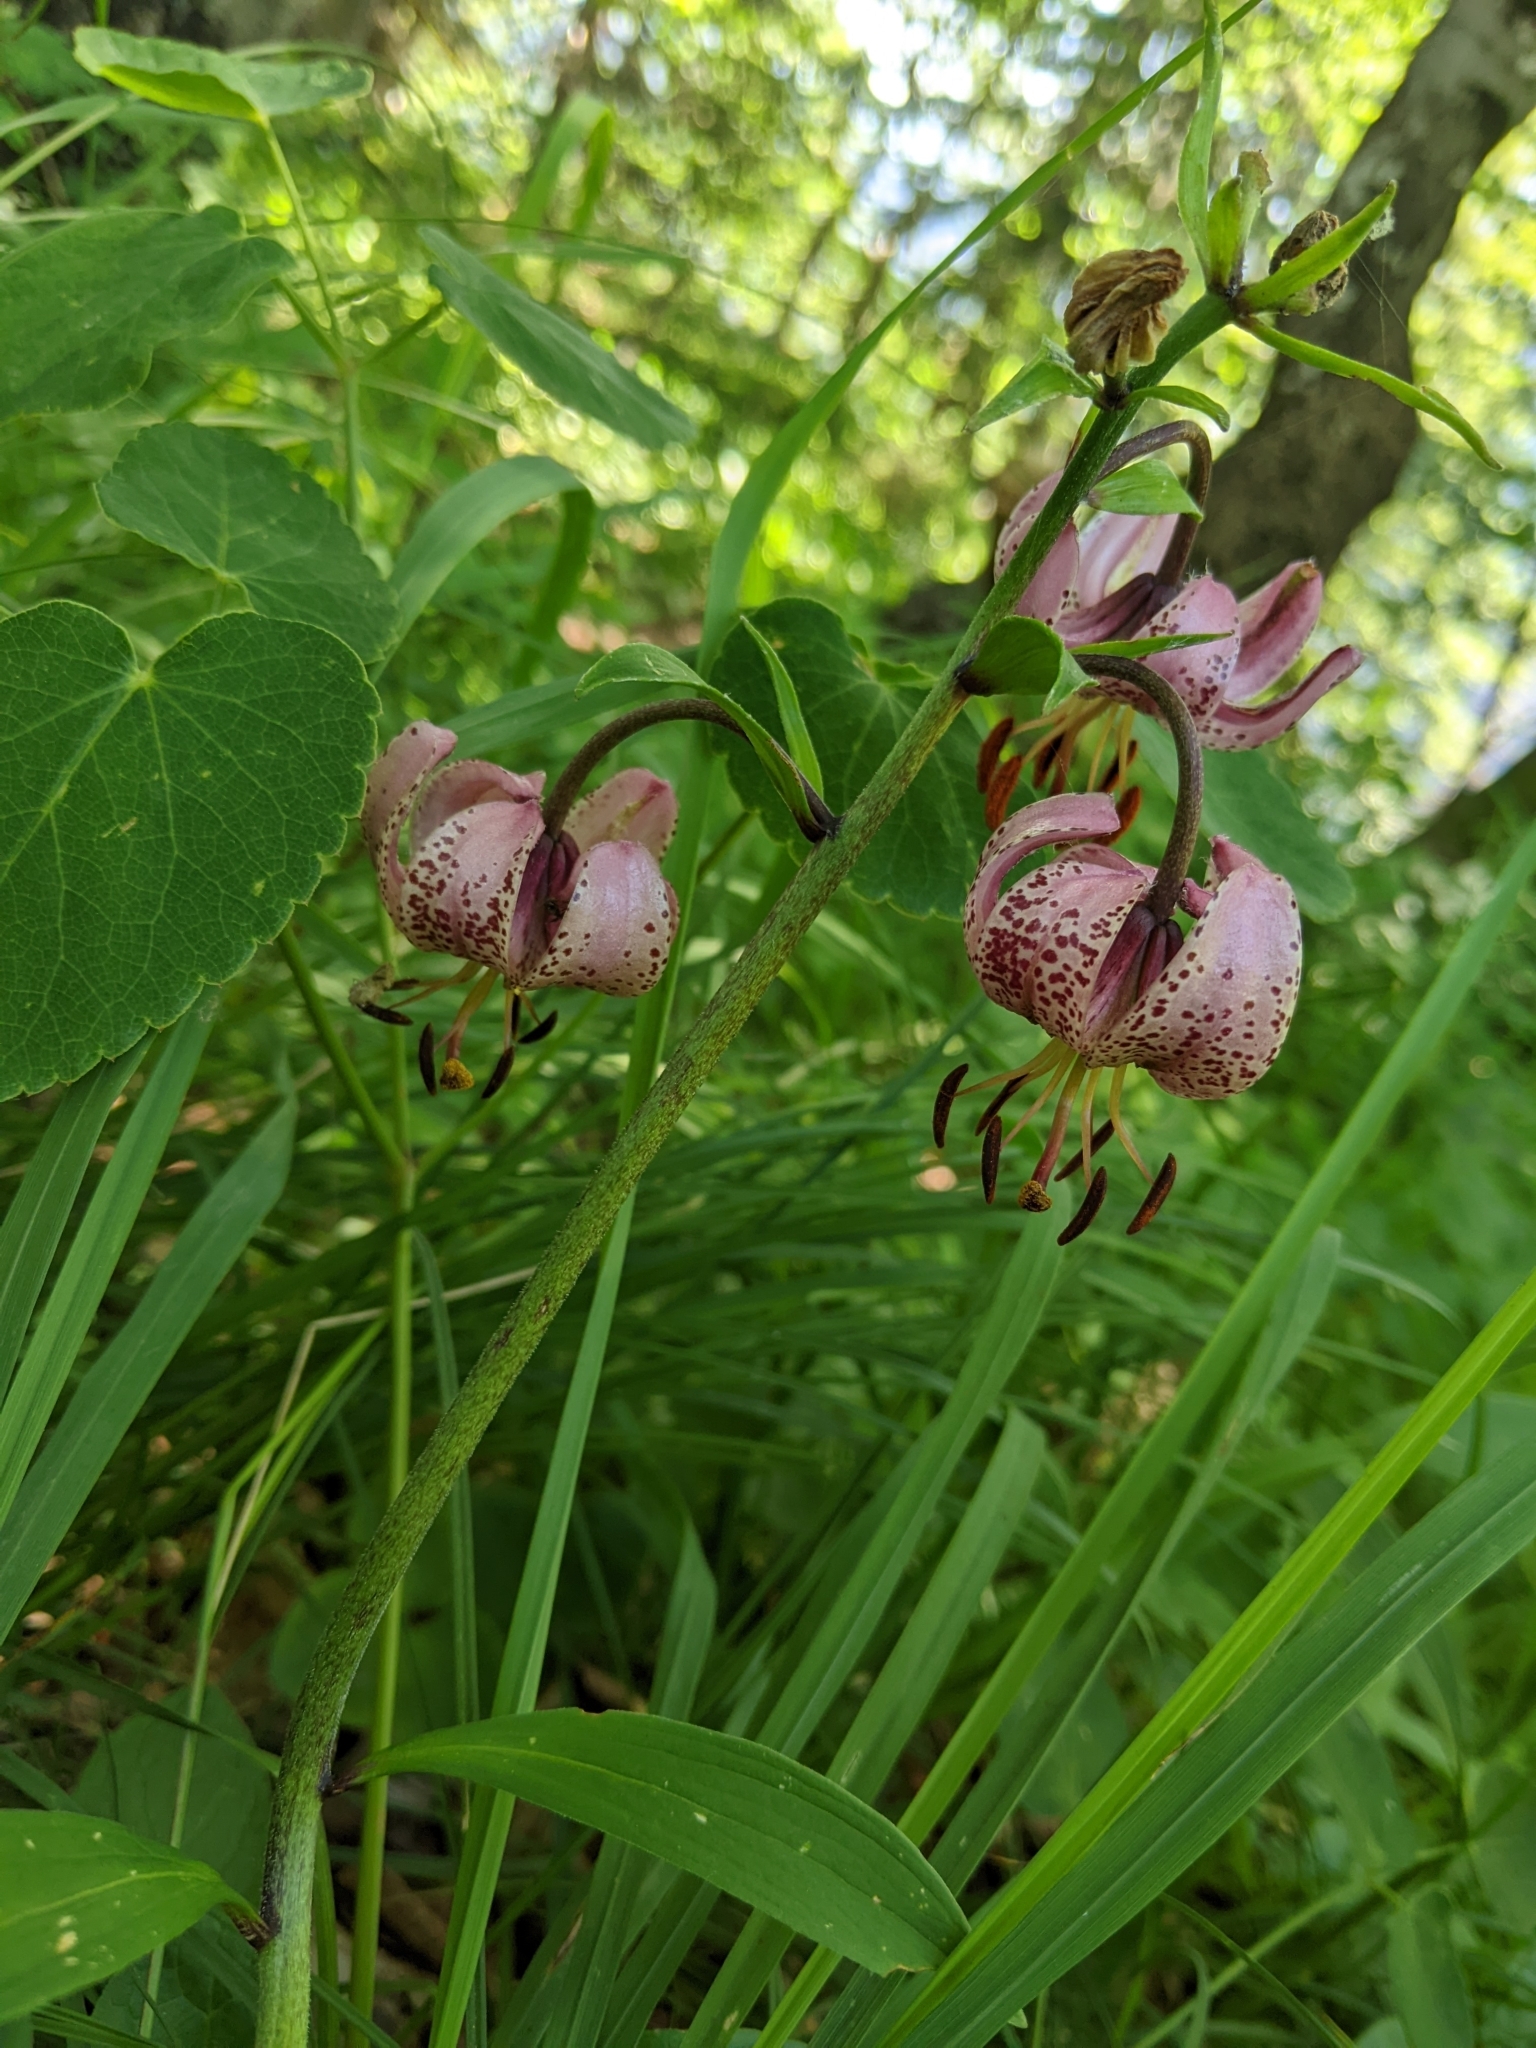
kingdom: Plantae
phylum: Tracheophyta
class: Liliopsida
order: Liliales
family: Liliaceae
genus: Lilium
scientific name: Lilium martagon
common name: Martagon lily
